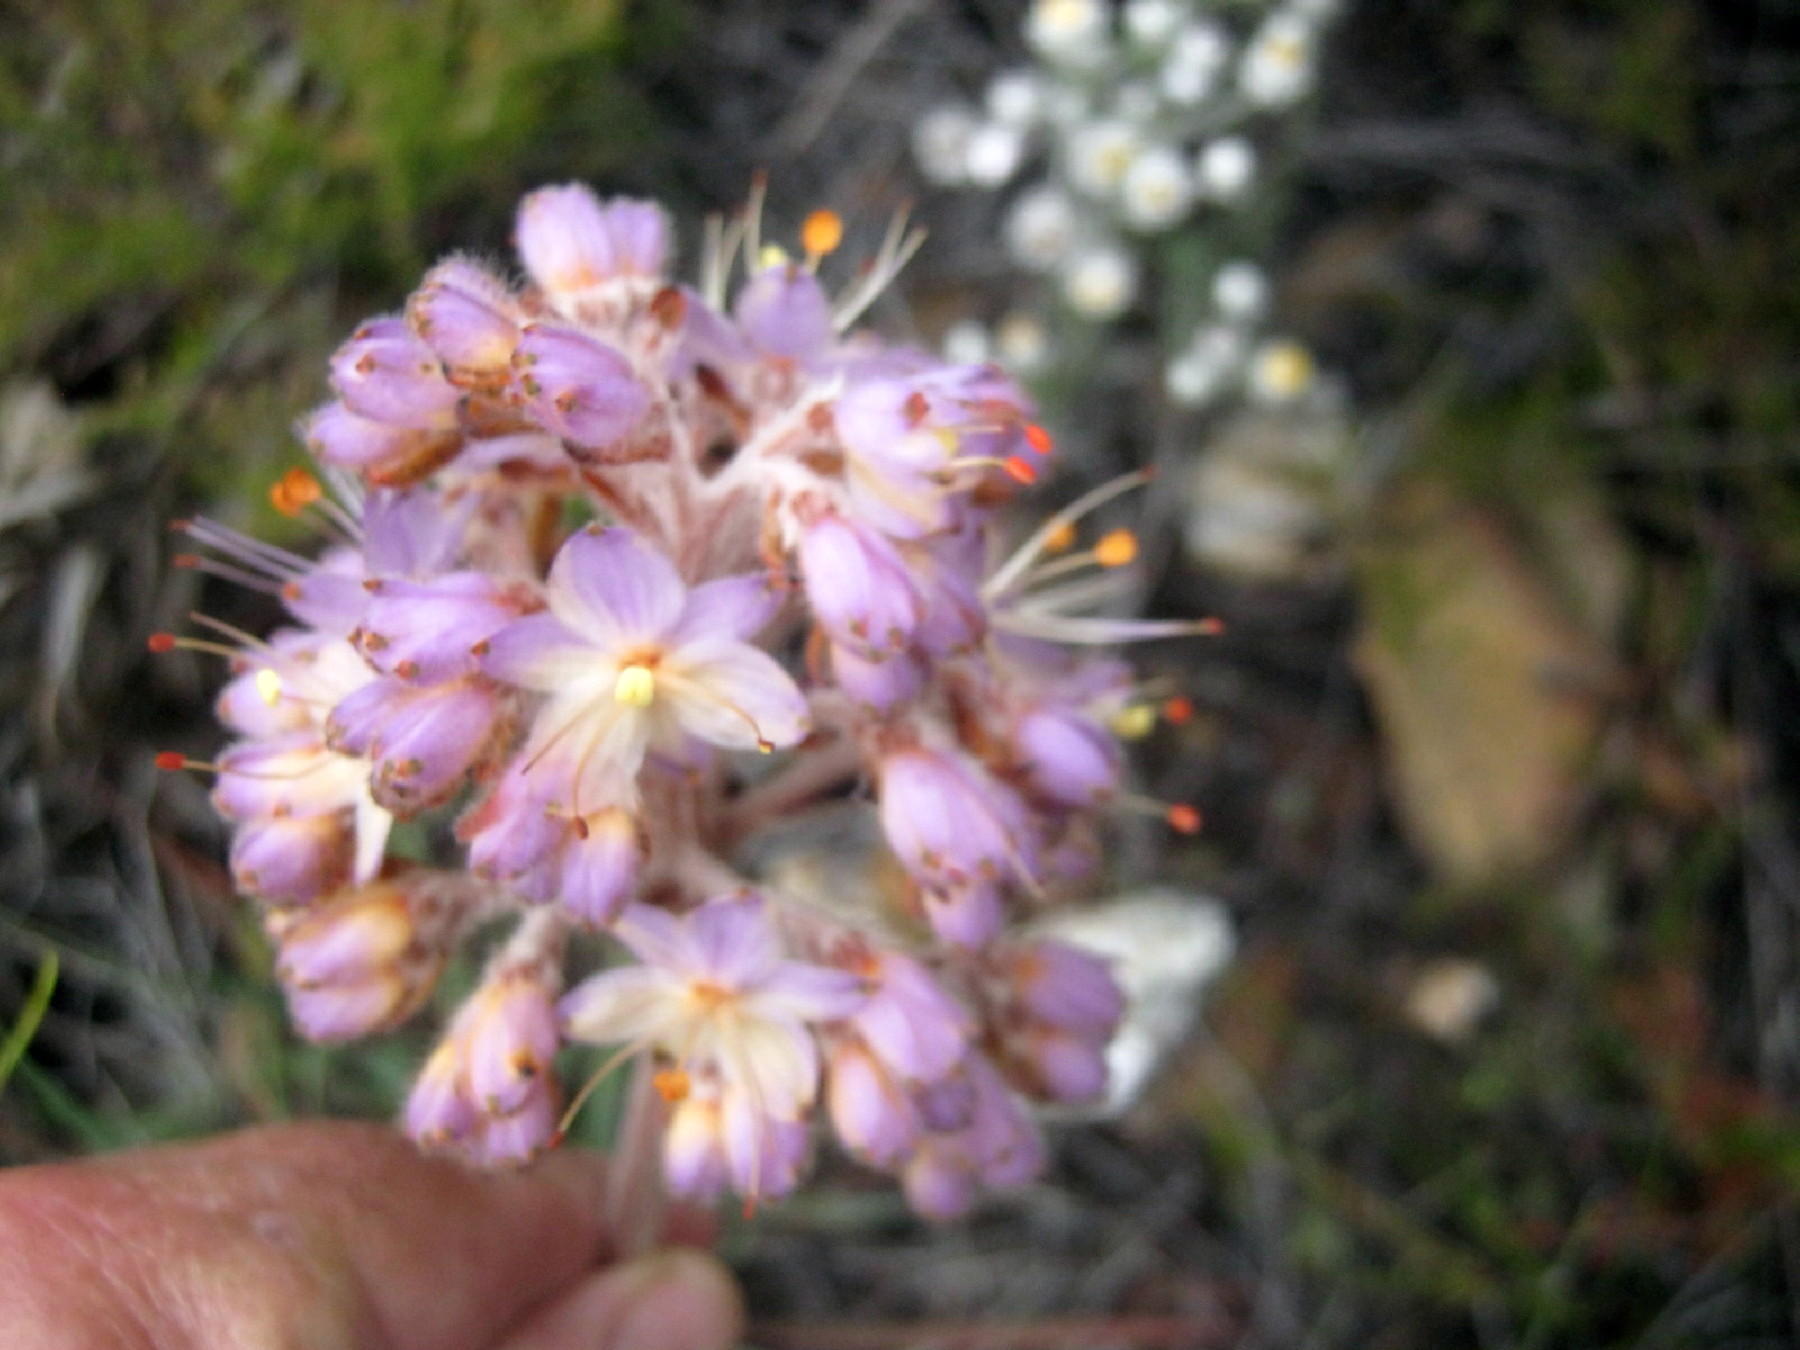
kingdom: Plantae
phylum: Tracheophyta
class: Liliopsida
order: Commelinales
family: Haemodoraceae
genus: Dilatris
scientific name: Dilatris ixioides
